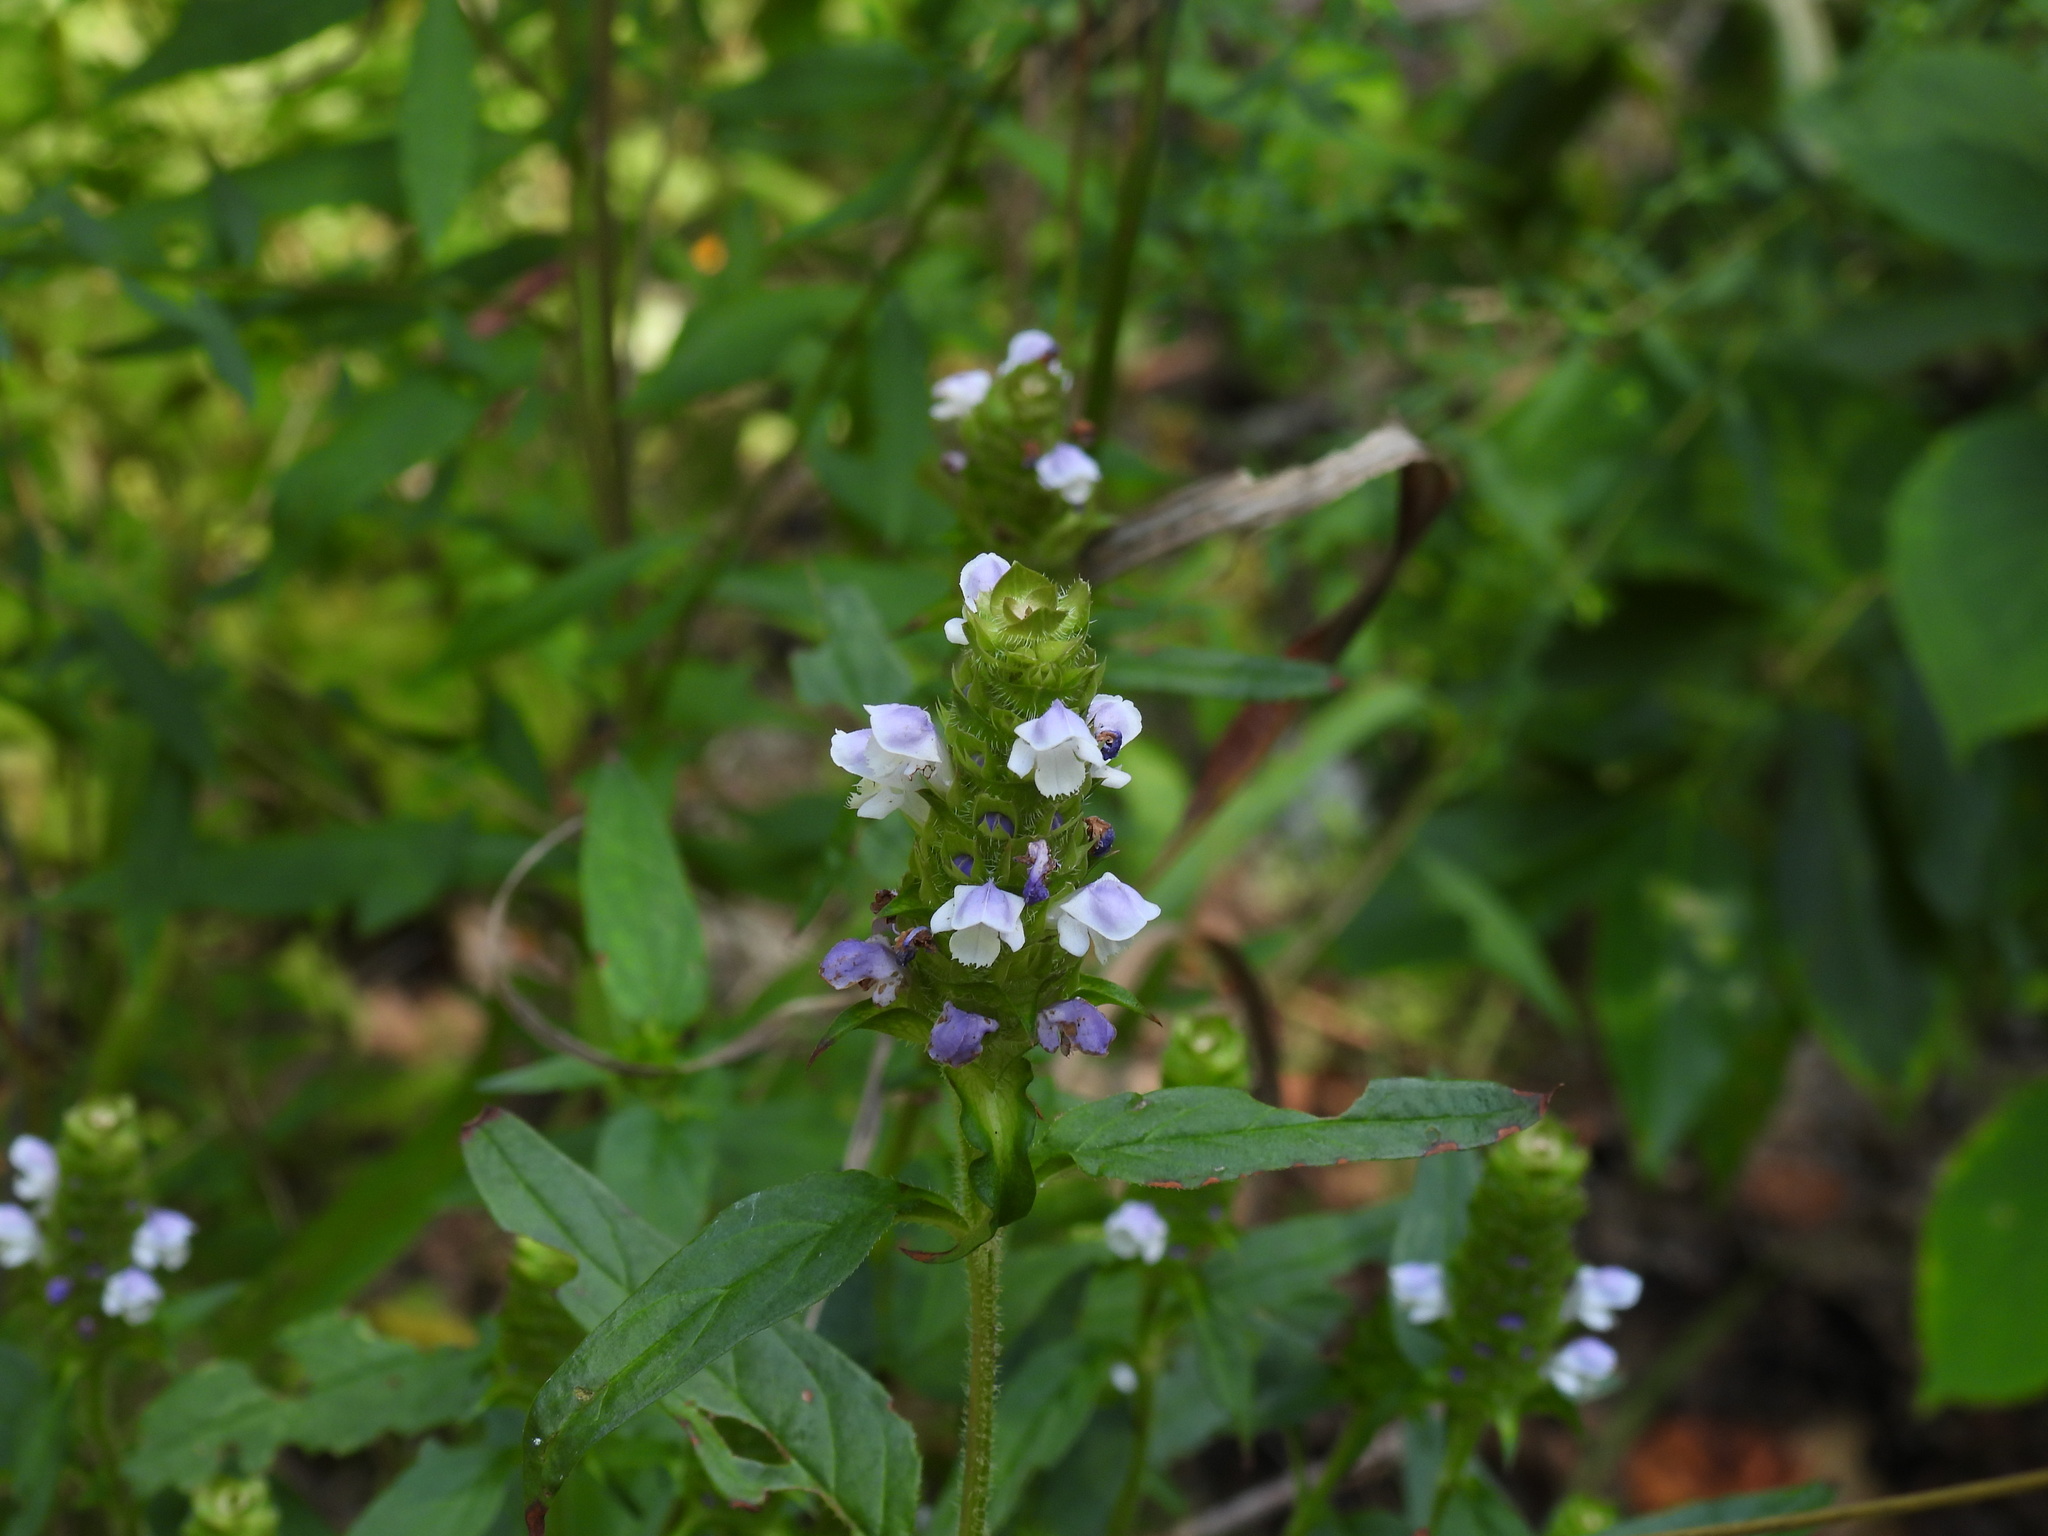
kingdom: Plantae
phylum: Tracheophyta
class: Magnoliopsida
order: Lamiales
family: Lamiaceae
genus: Prunella
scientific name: Prunella vulgaris
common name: Heal-all
